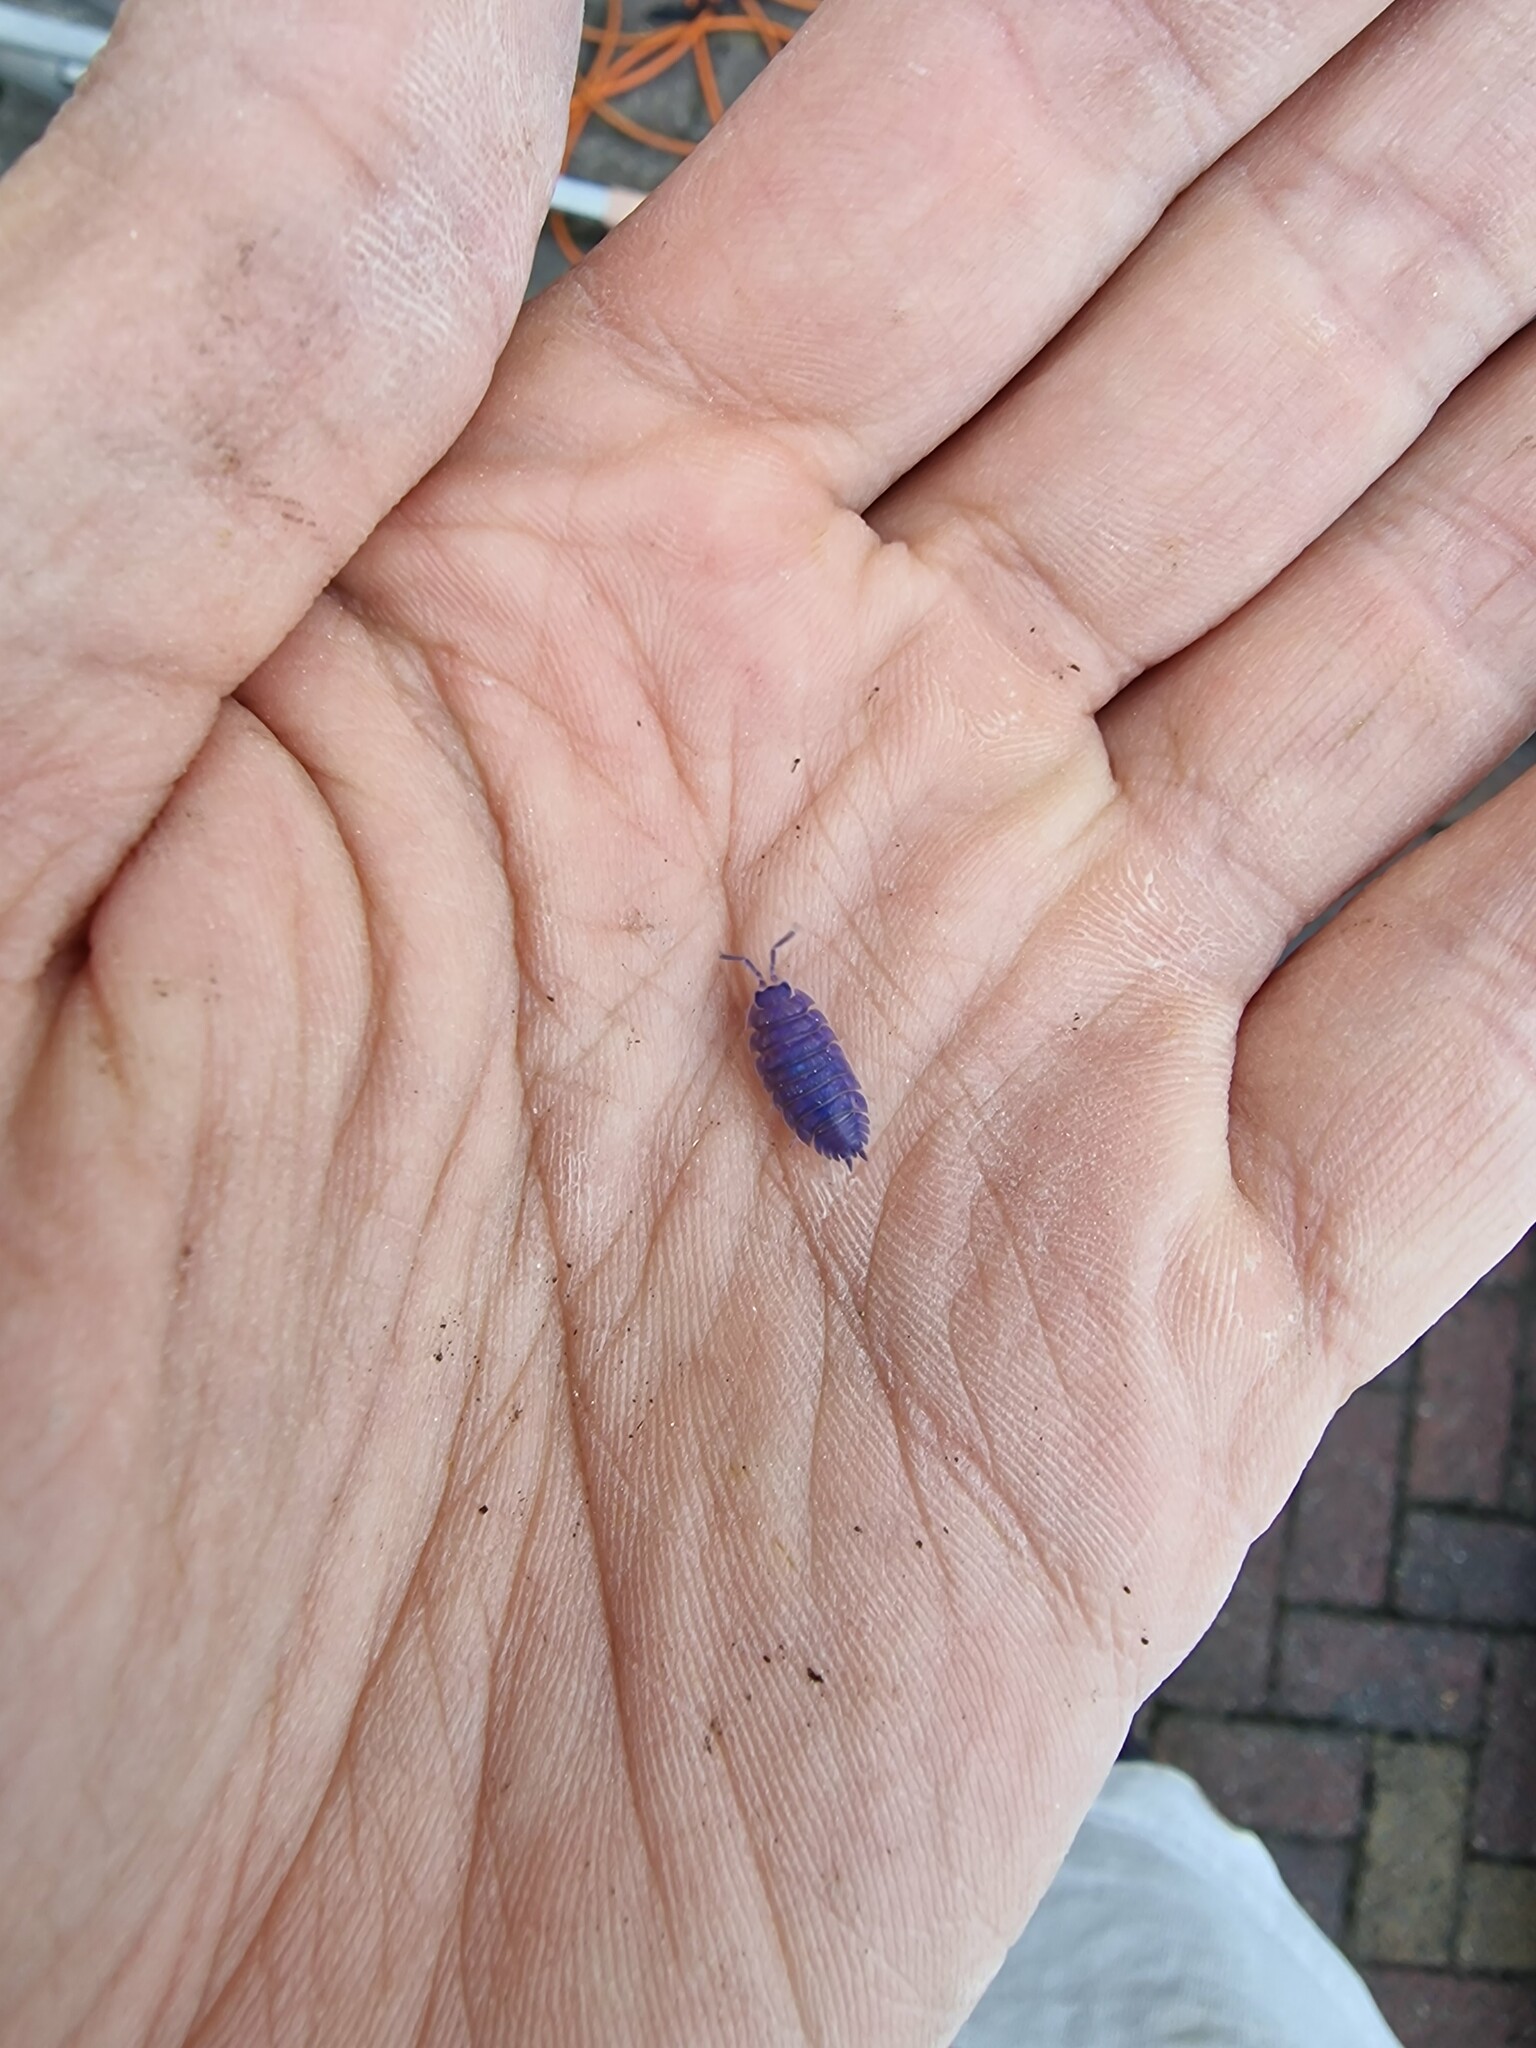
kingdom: Viruses
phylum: Nucleocytoviricota
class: Megaviricetes
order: Pimascovirales
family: Iridoviridae
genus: Iridovirus
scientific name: Iridovirus Invertebrate iridescent virus 31
